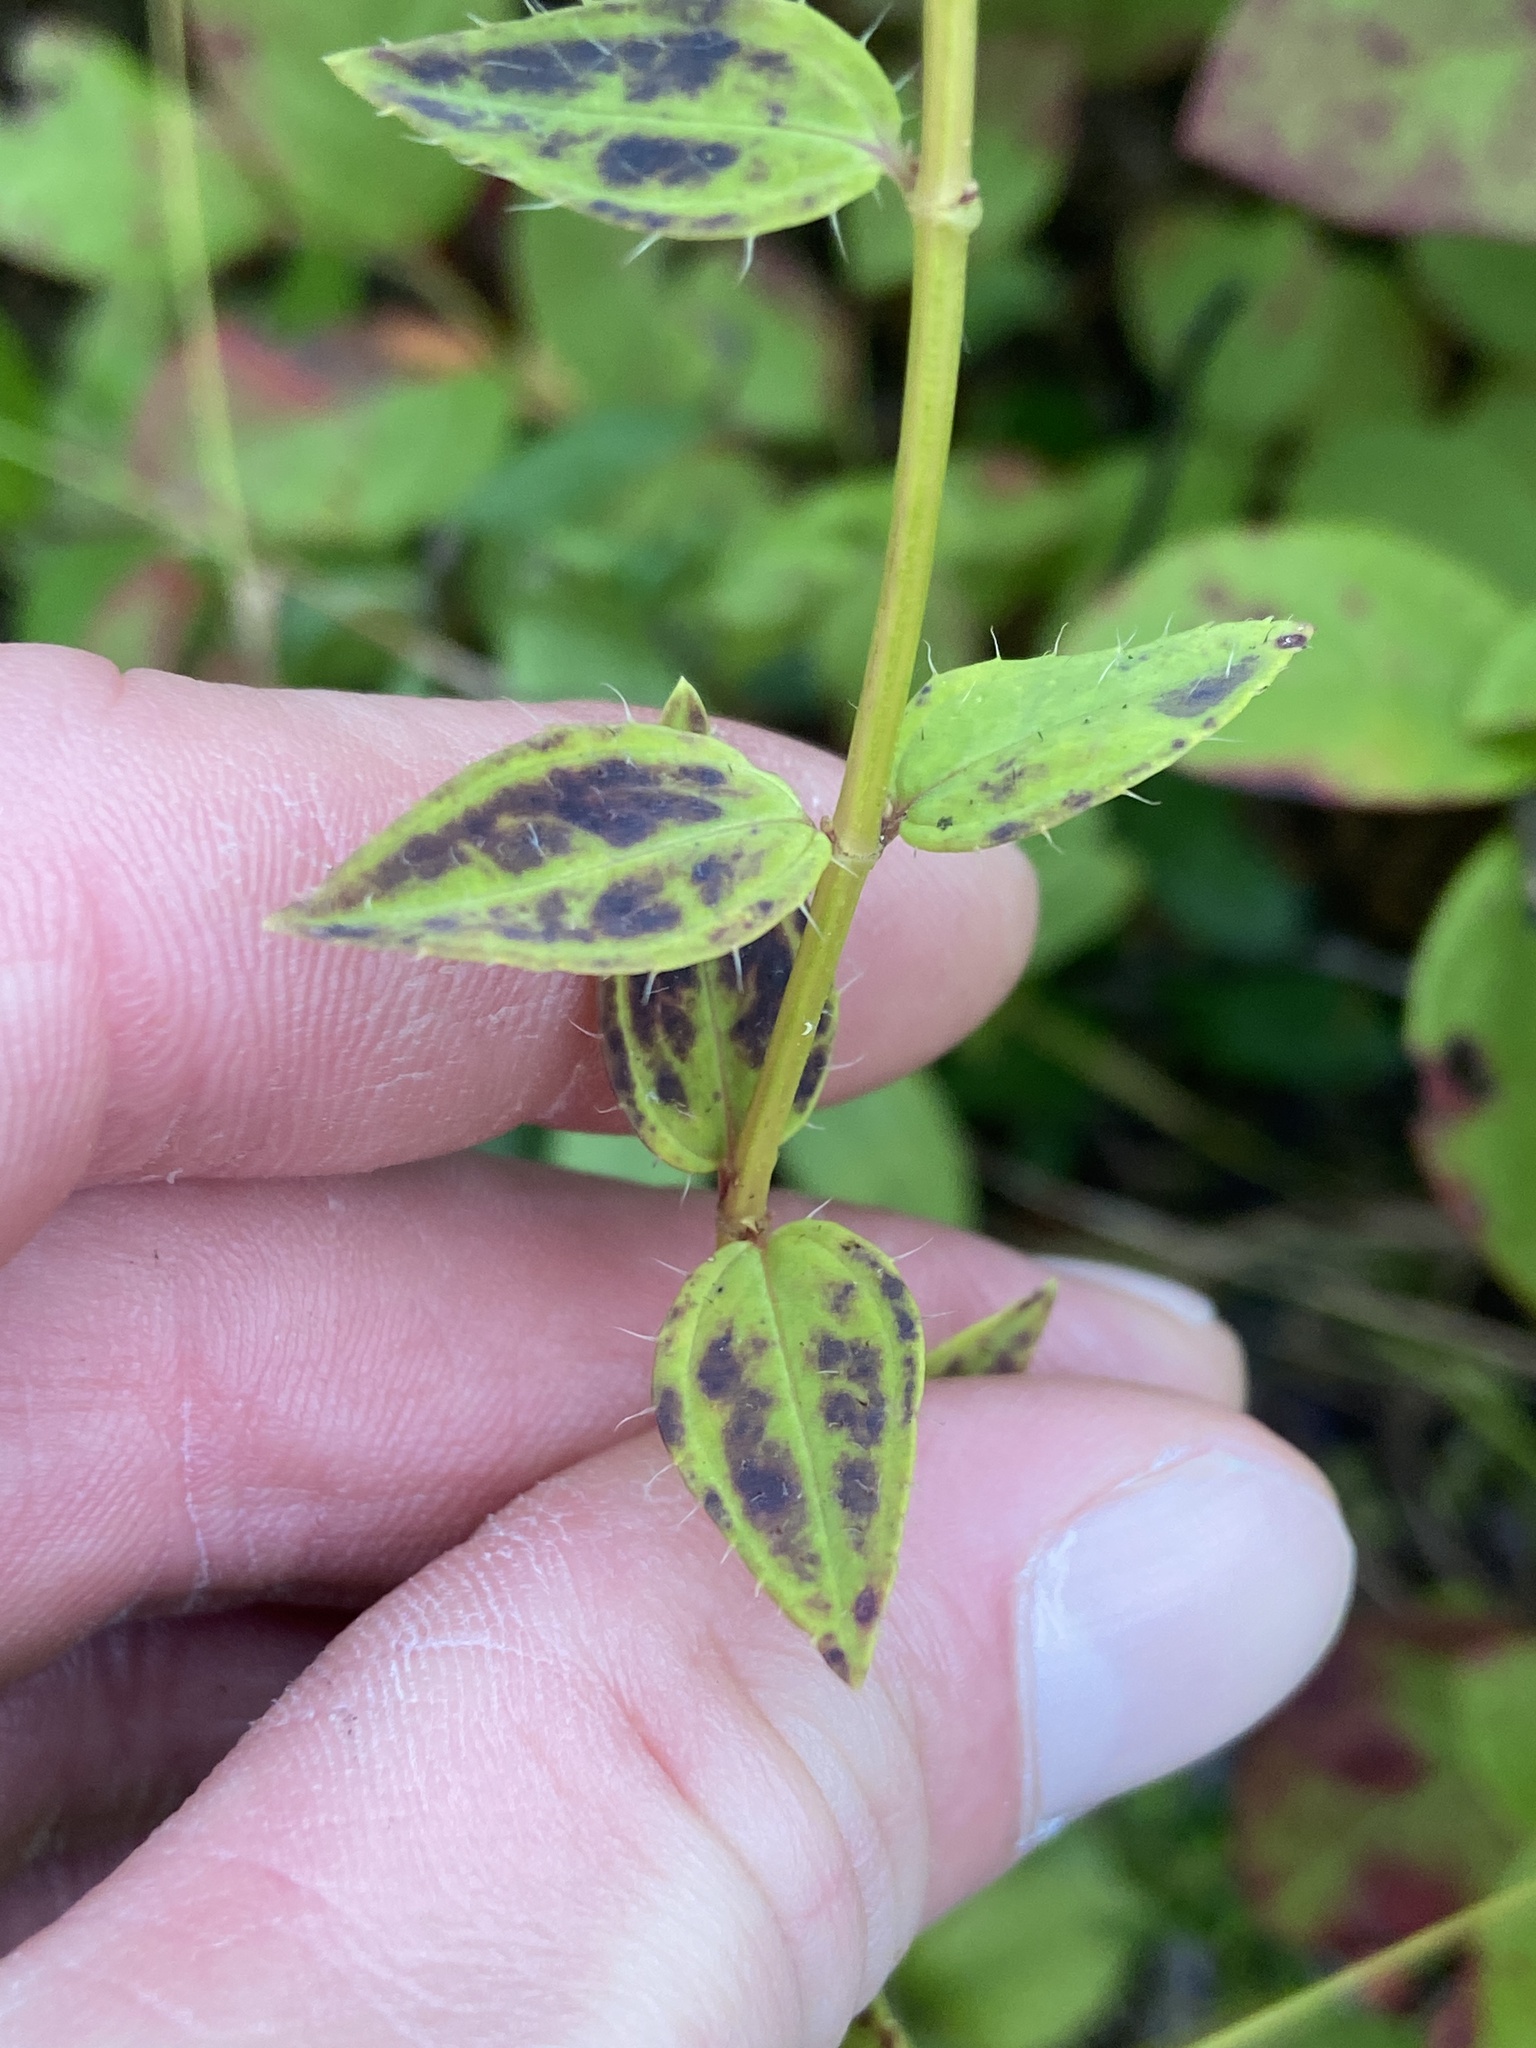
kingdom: Plantae
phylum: Tracheophyta
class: Magnoliopsida
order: Myrtales
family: Melastomataceae
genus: Rhexia
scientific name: Rhexia petiolata
